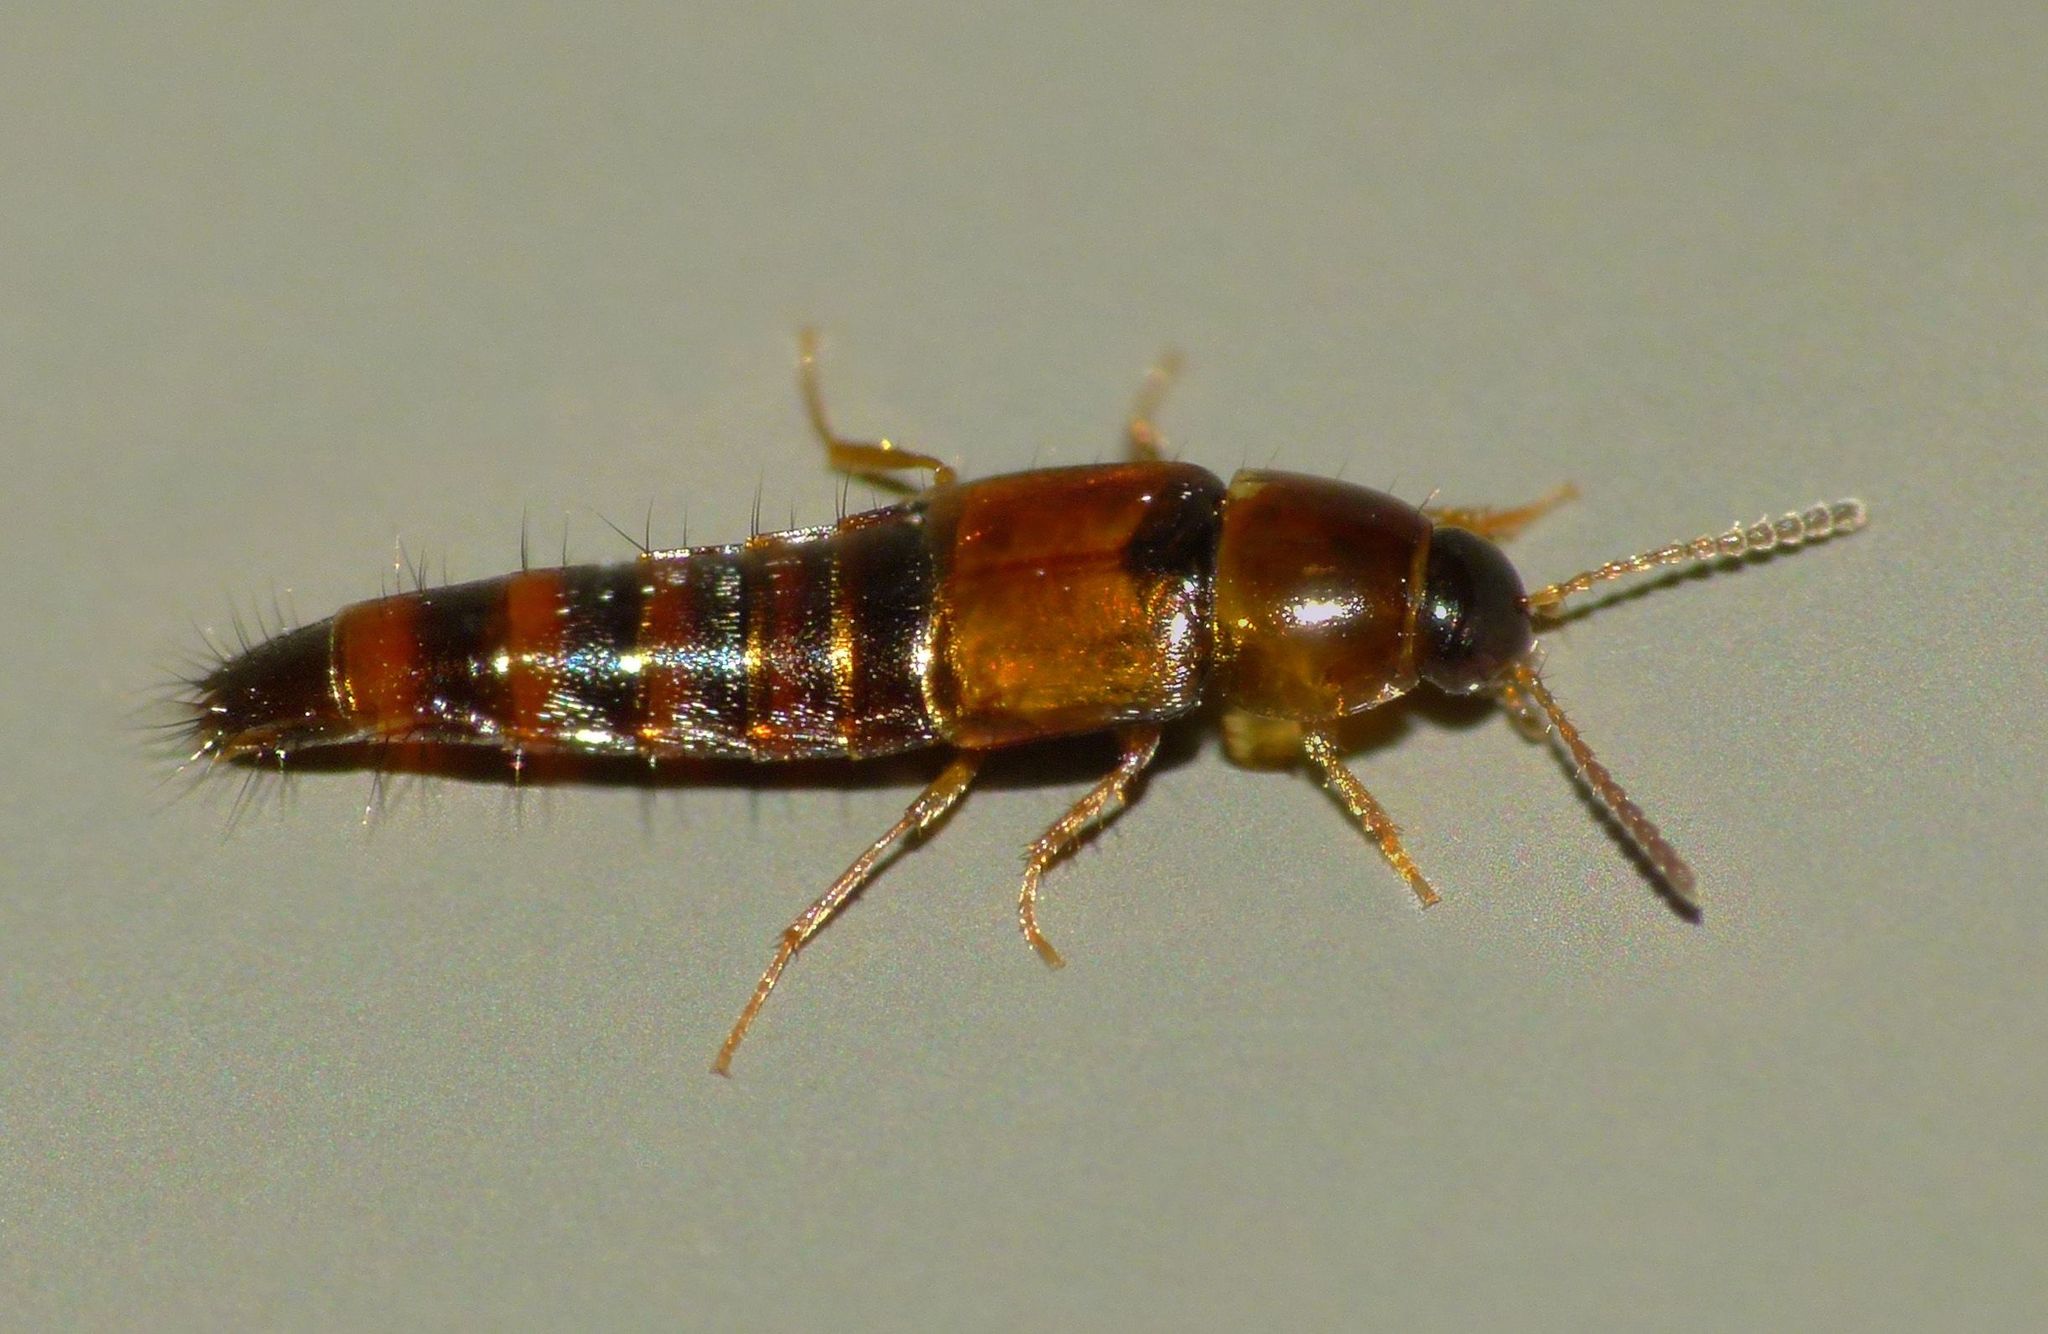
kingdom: Animalia
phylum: Arthropoda
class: Insecta
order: Coleoptera
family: Staphylinidae
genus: Palporus
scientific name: Palporus nitidulus
